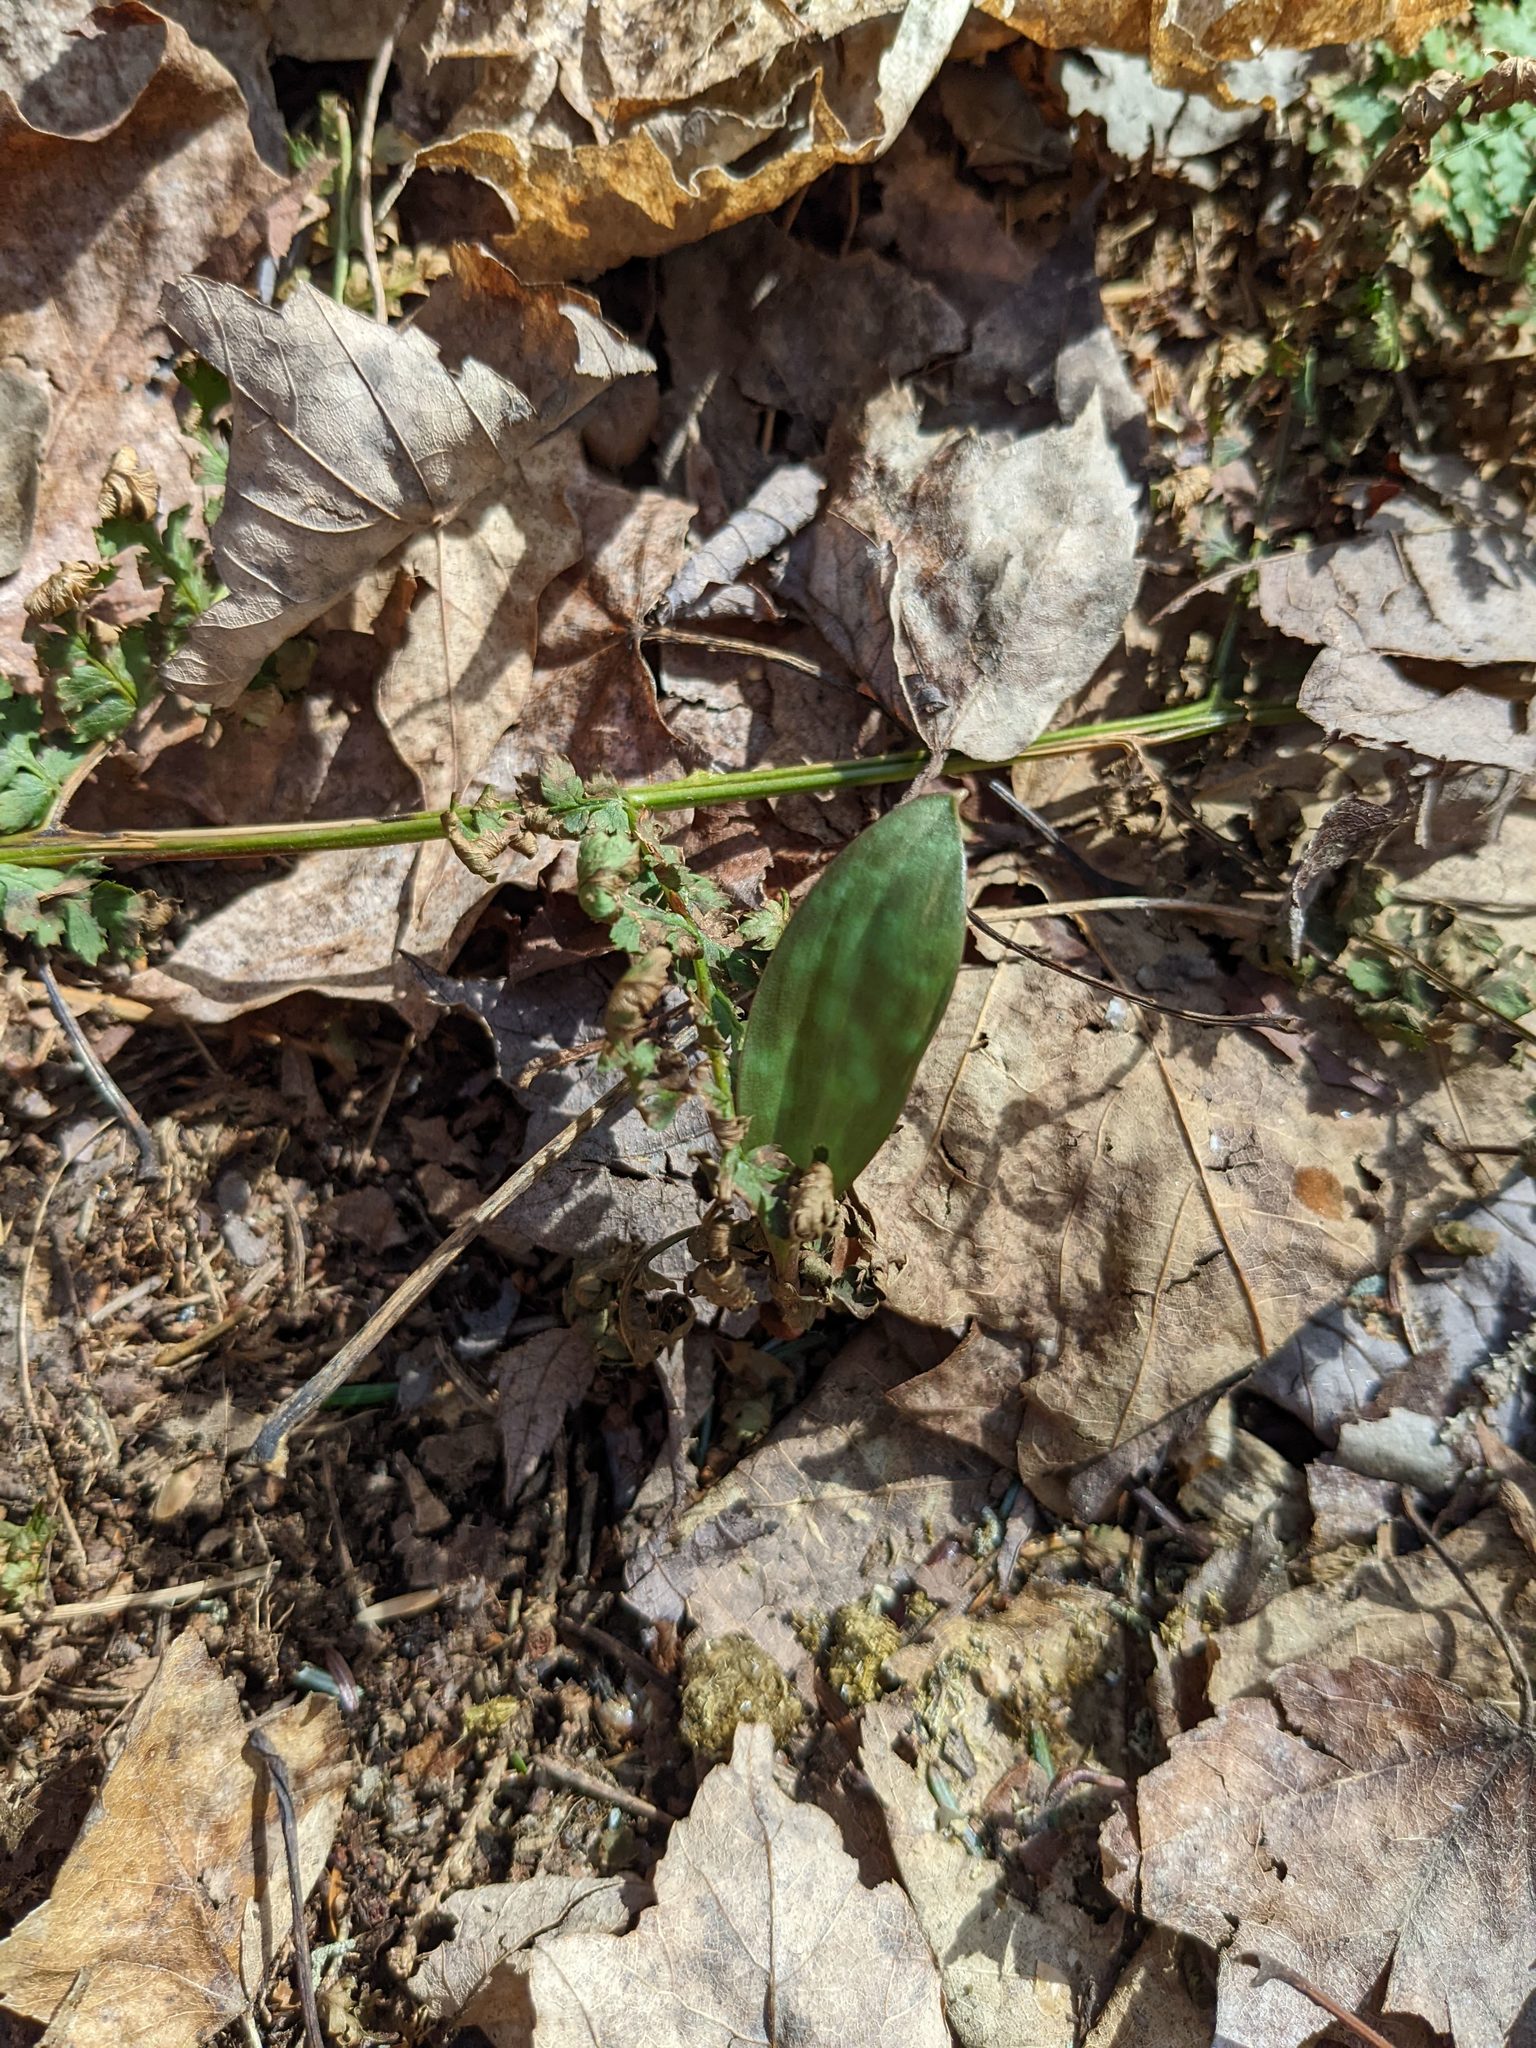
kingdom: Plantae
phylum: Tracheophyta
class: Liliopsida
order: Liliales
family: Liliaceae
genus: Erythronium
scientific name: Erythronium americanum
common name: Yellow adder's-tongue
